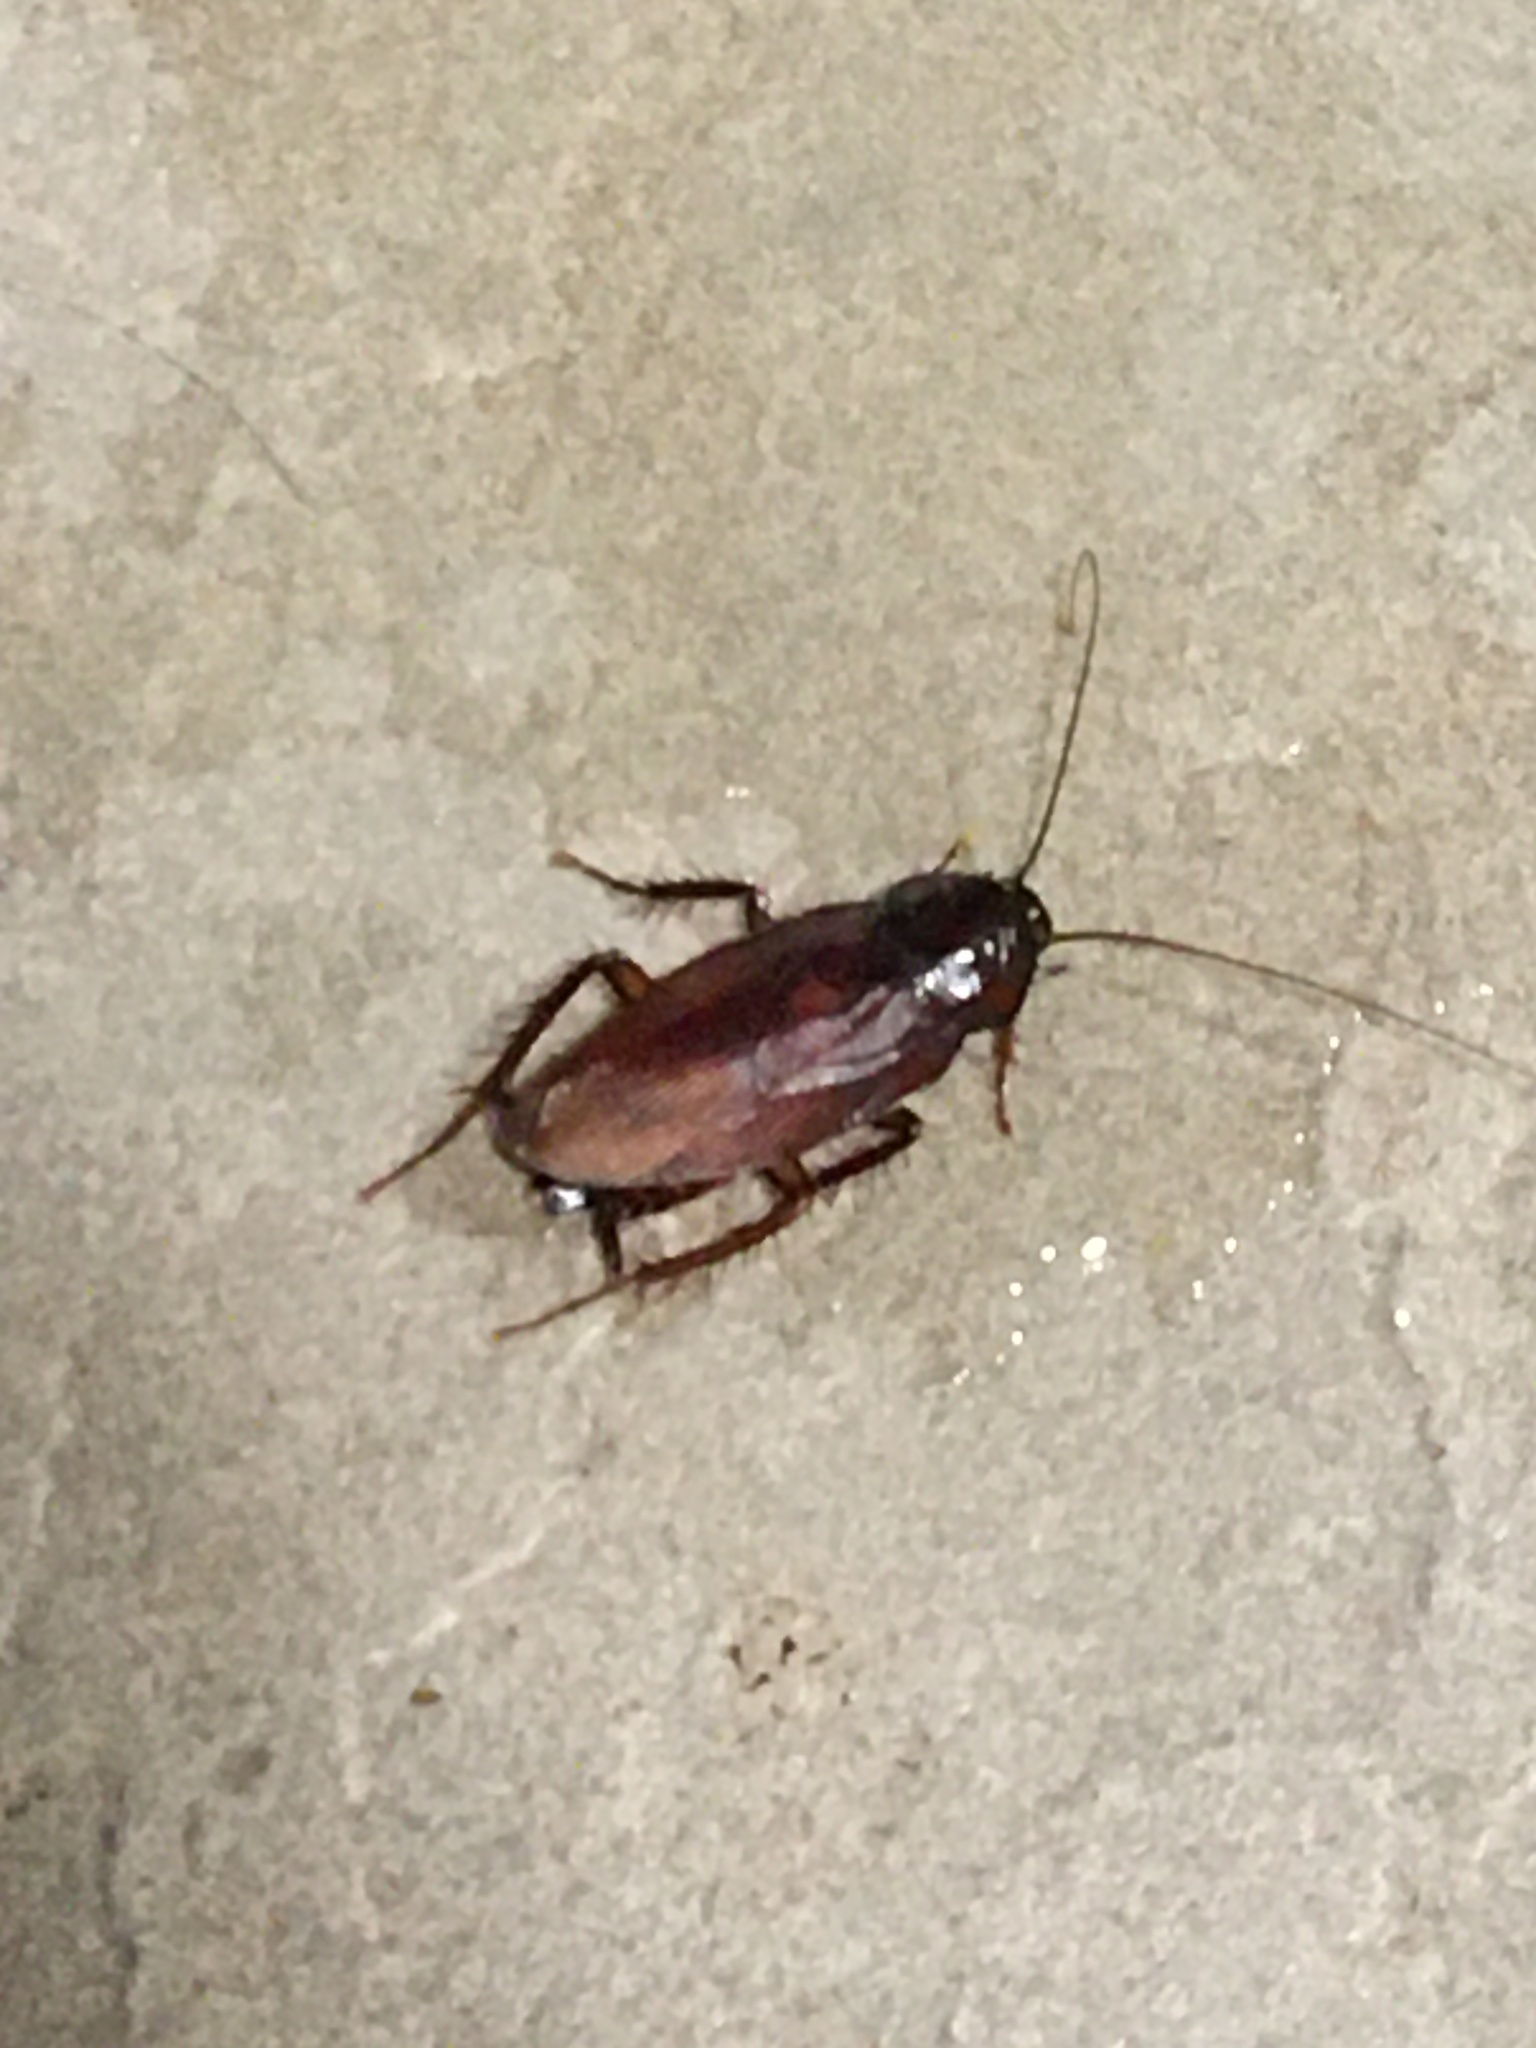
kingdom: Animalia
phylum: Arthropoda
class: Insecta
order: Blattodea
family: Blattidae
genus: Periplaneta
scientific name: Periplaneta fuliginosa
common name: Smokeybrown cockroad
